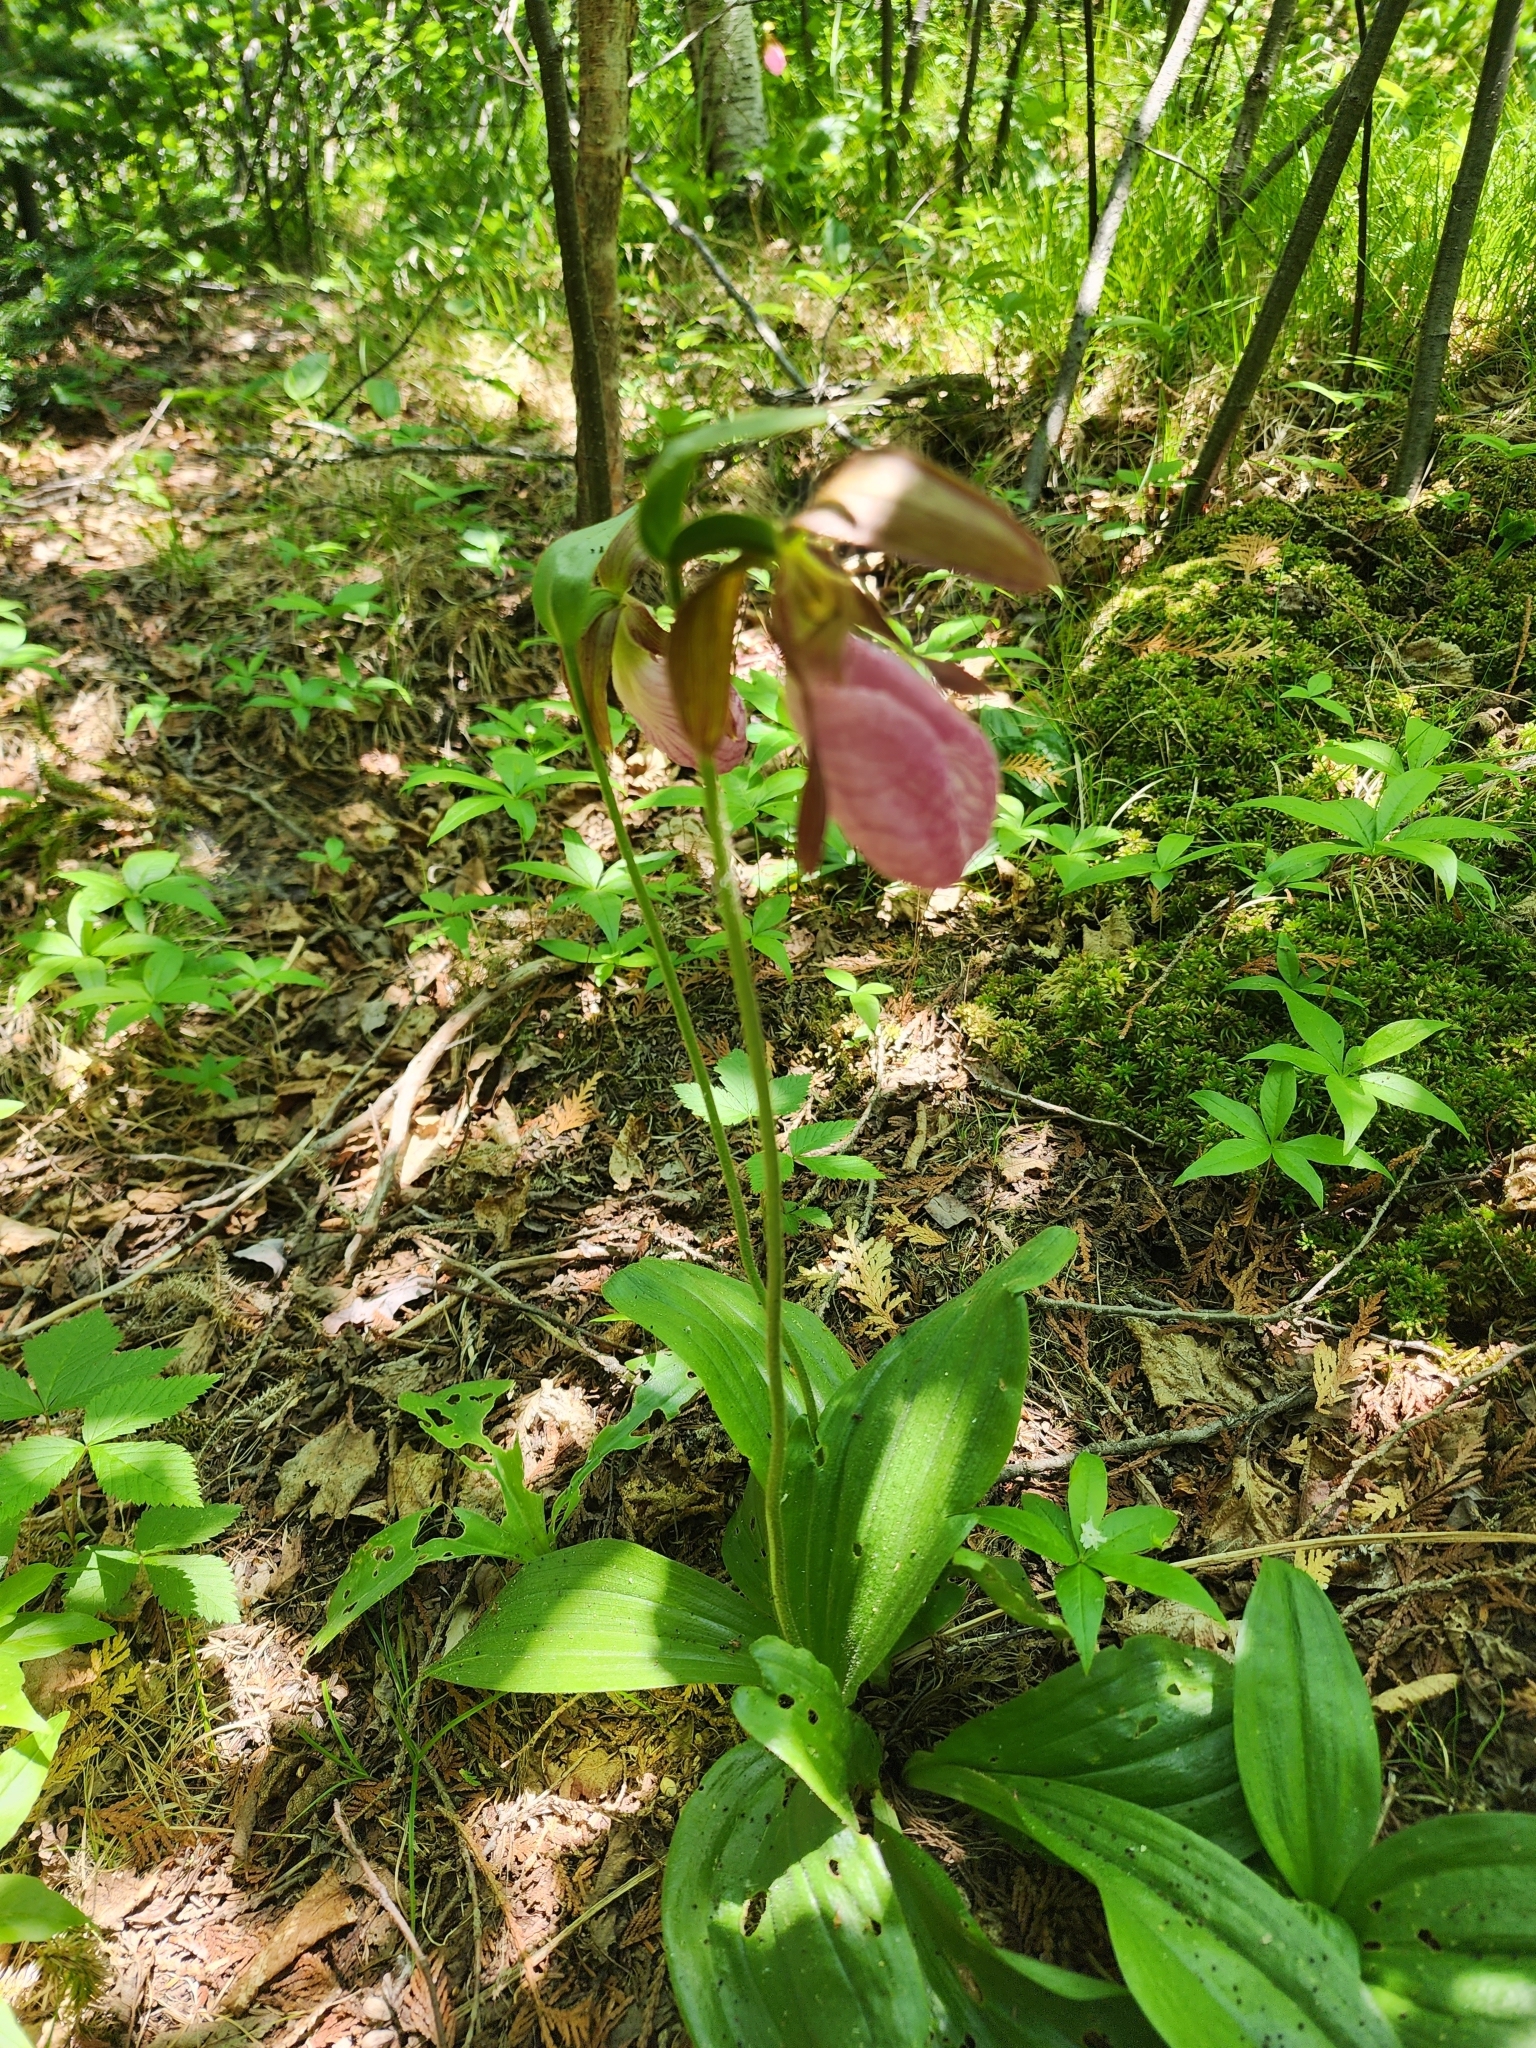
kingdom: Plantae
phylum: Tracheophyta
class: Liliopsida
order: Asparagales
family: Orchidaceae
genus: Cypripedium
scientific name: Cypripedium acaule
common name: Pink lady's-slipper
